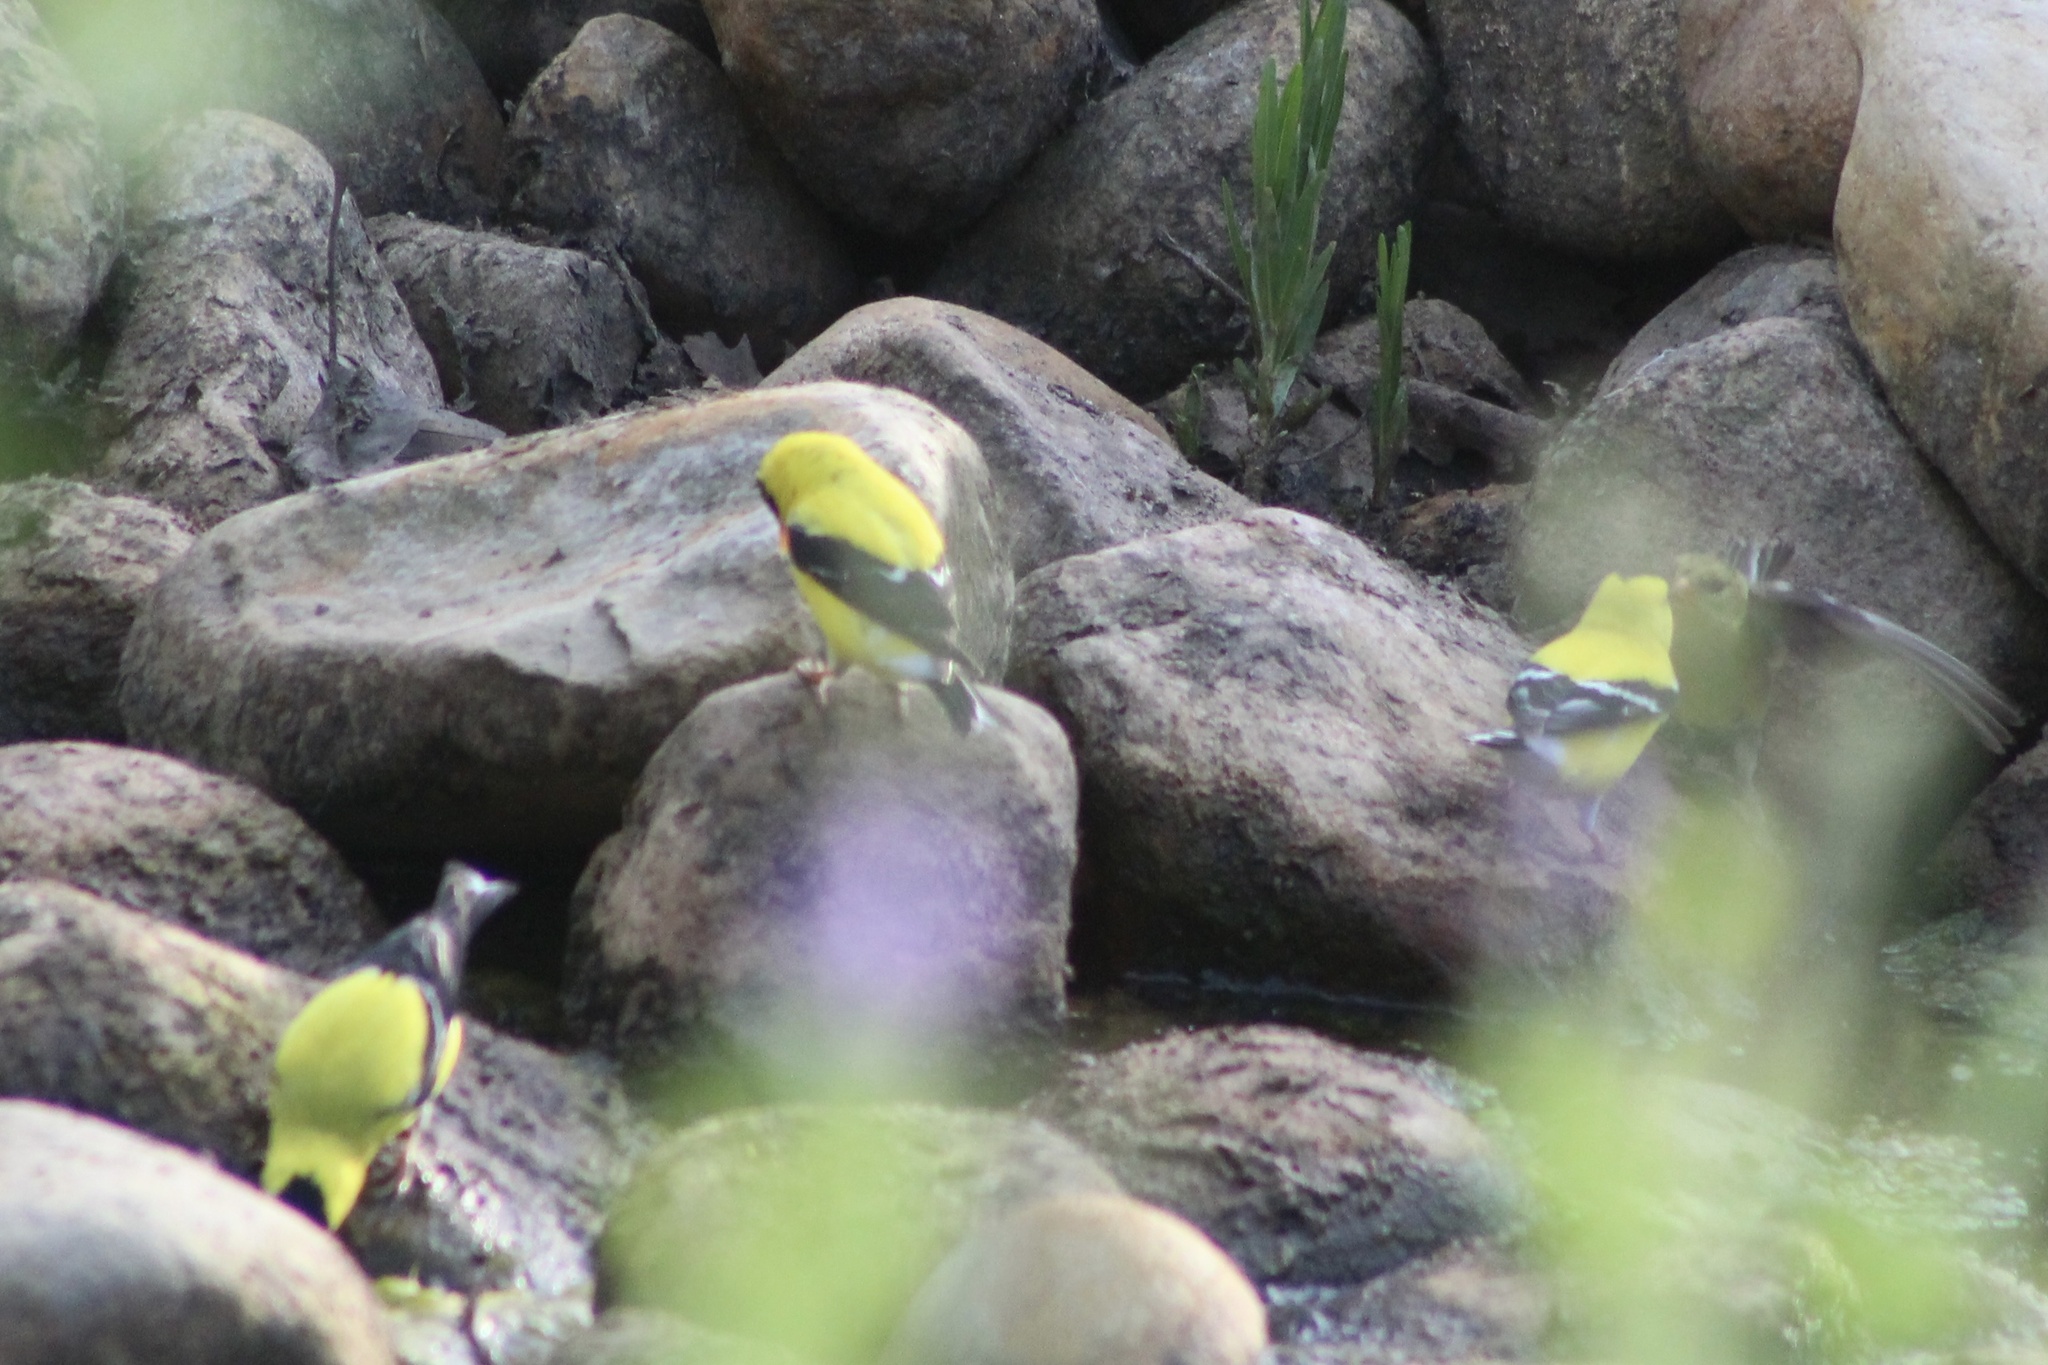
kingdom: Animalia
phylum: Chordata
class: Aves
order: Passeriformes
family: Fringillidae
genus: Spinus
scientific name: Spinus tristis
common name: American goldfinch
